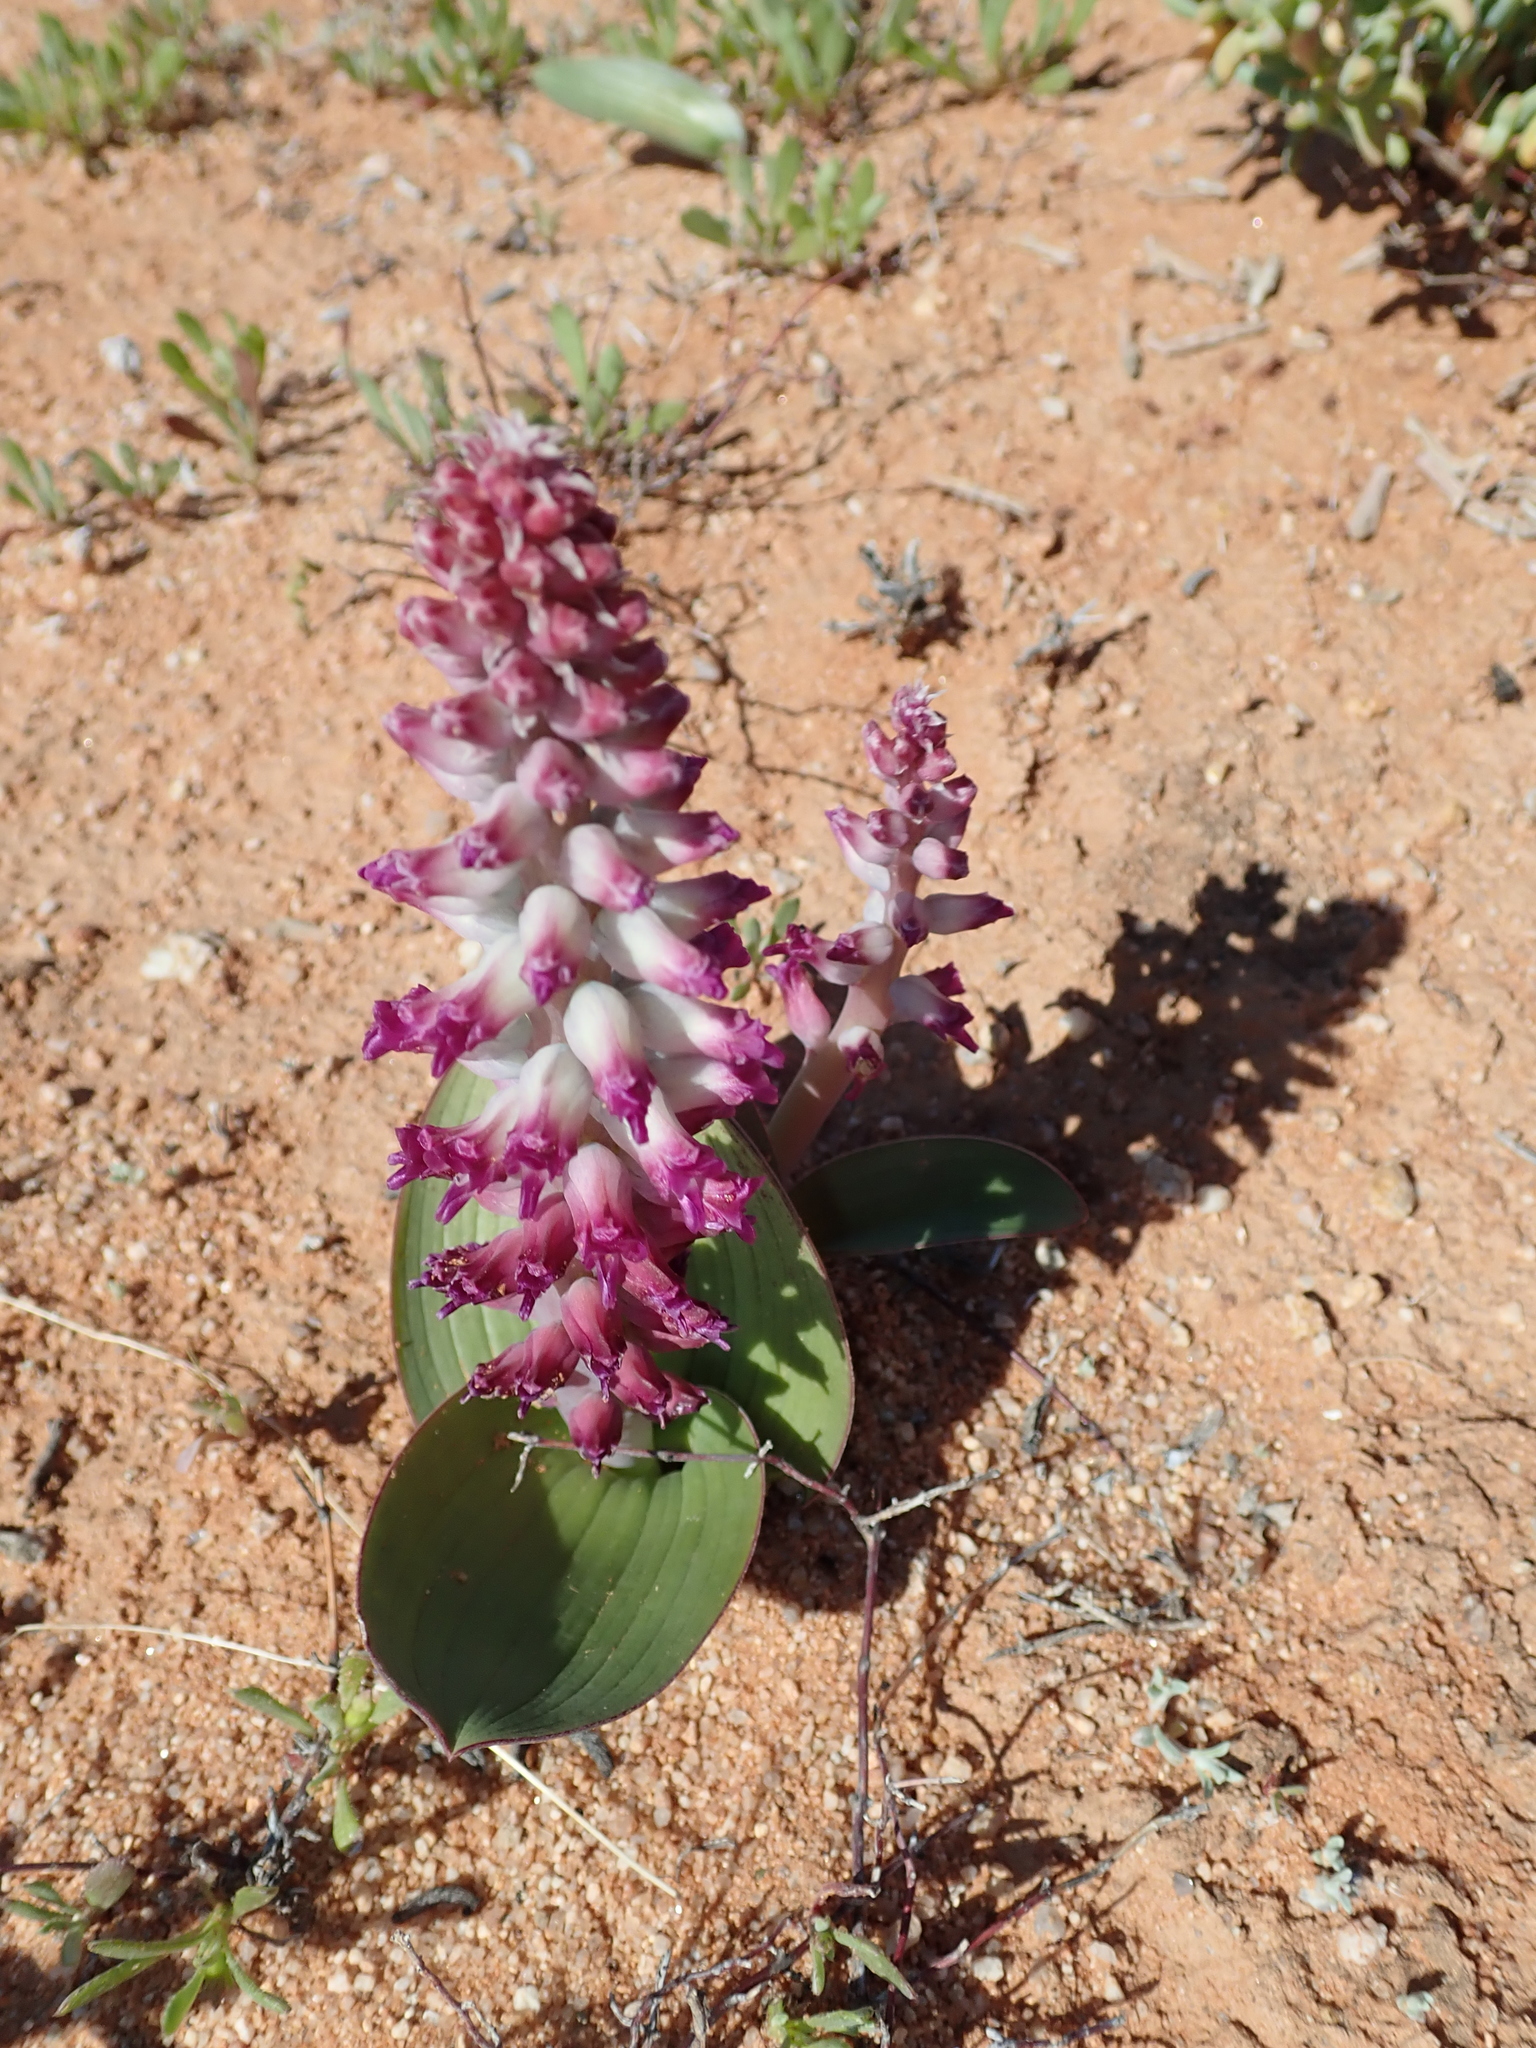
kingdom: Plantae
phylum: Tracheophyta
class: Liliopsida
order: Asparagales
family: Asparagaceae
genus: Lachenalia
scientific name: Lachenalia carnosa
